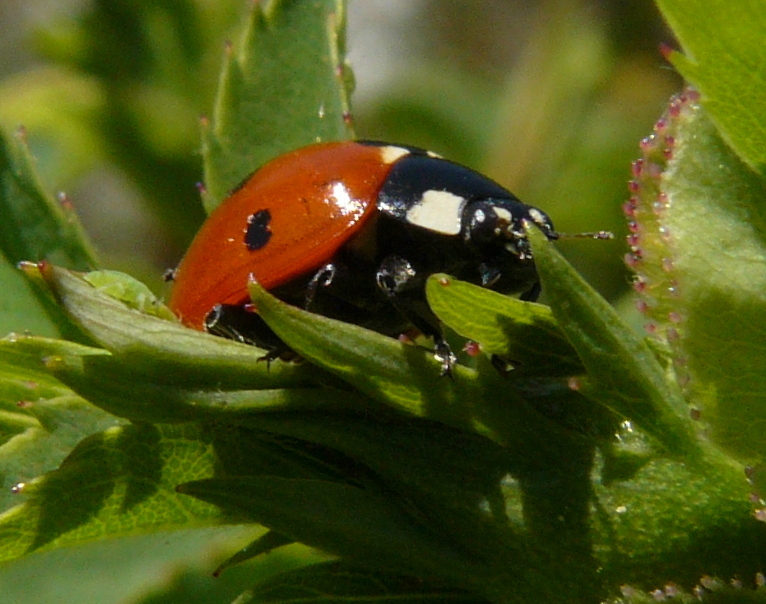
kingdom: Animalia
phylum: Arthropoda
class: Insecta
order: Coleoptera
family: Coccinellidae
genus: Coccinella
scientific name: Coccinella septempunctata
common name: Sevenspotted lady beetle
